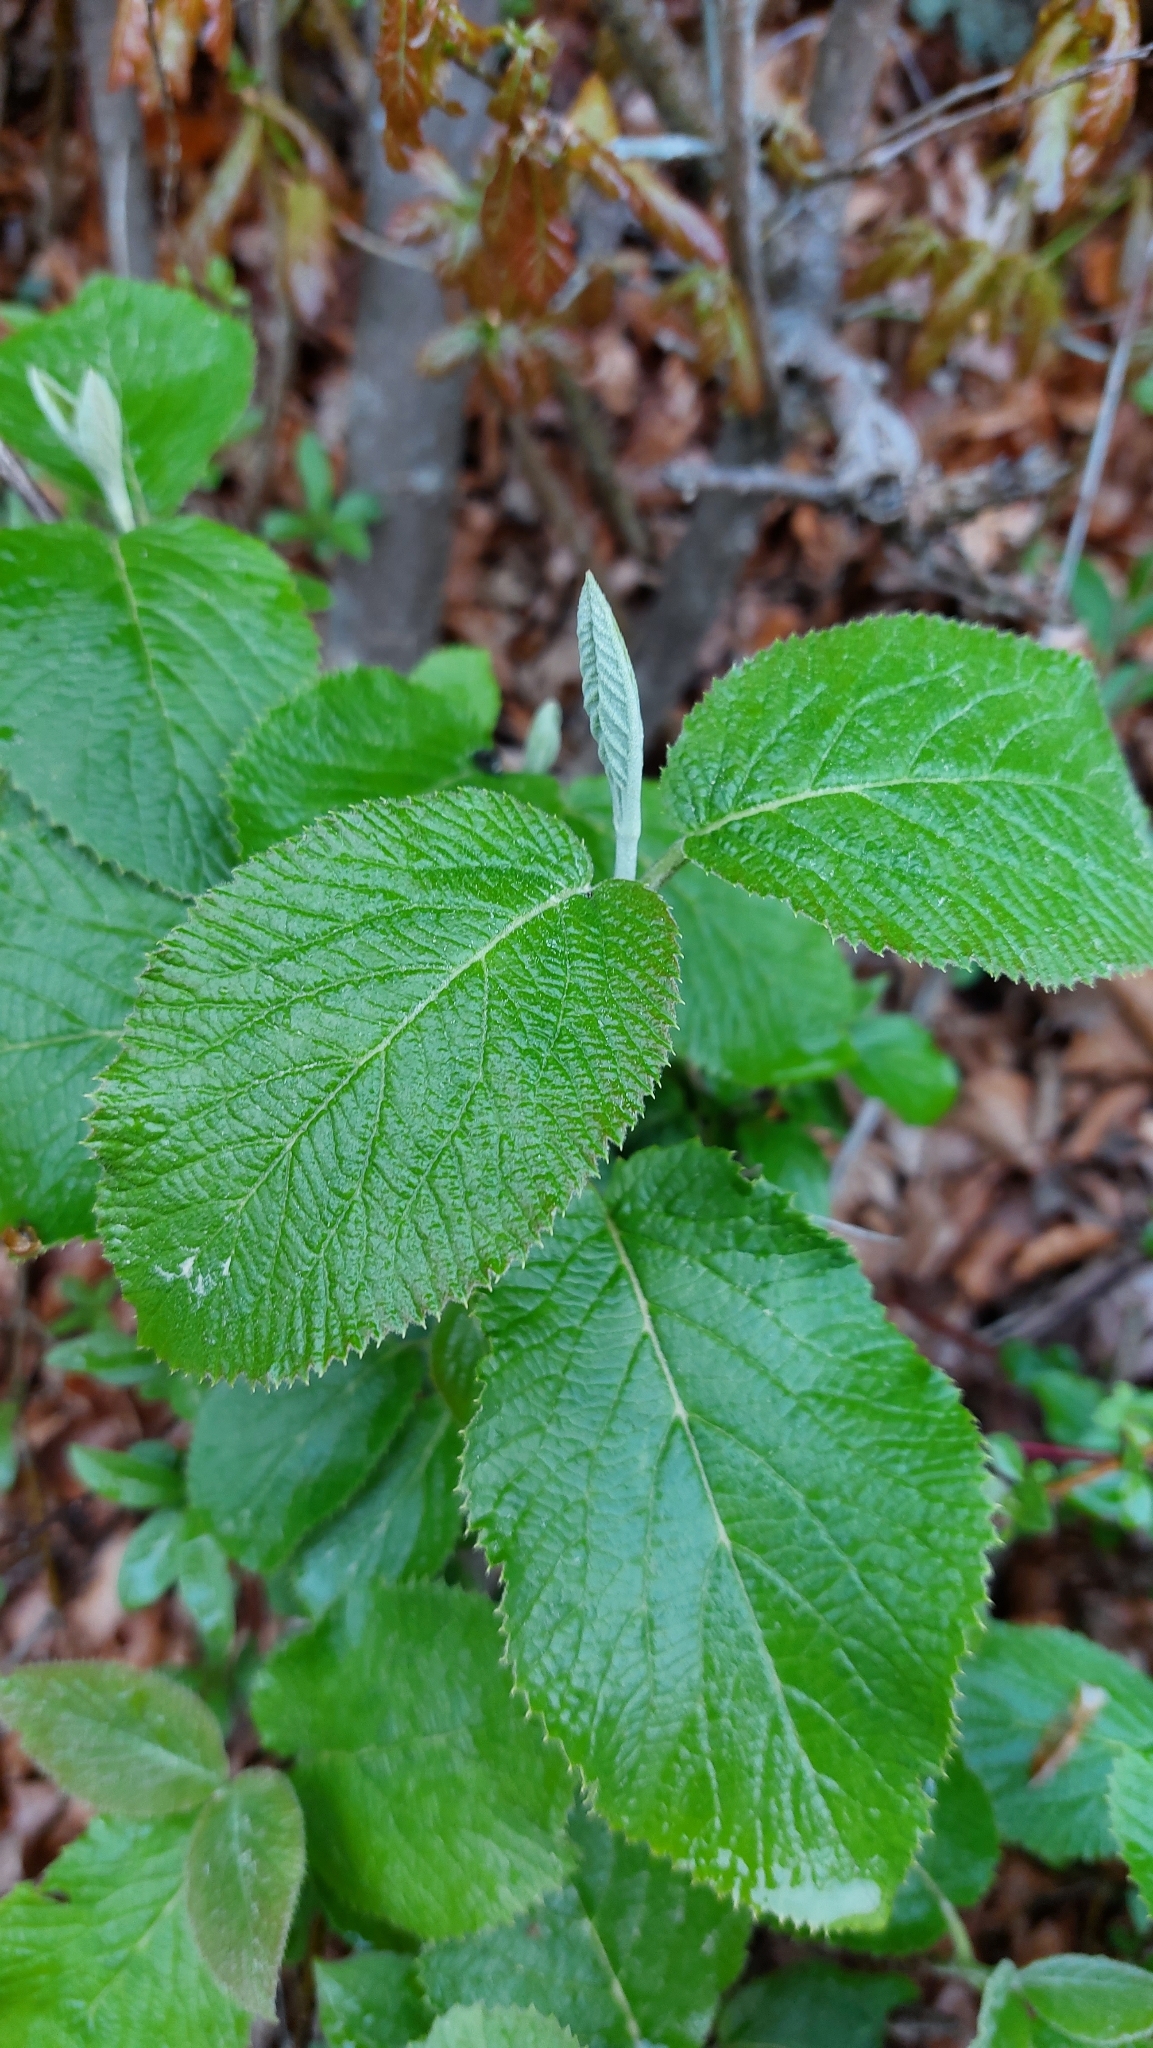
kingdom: Plantae
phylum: Tracheophyta
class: Magnoliopsida
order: Dipsacales
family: Viburnaceae
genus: Viburnum
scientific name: Viburnum lantana
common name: Wayfaring tree
